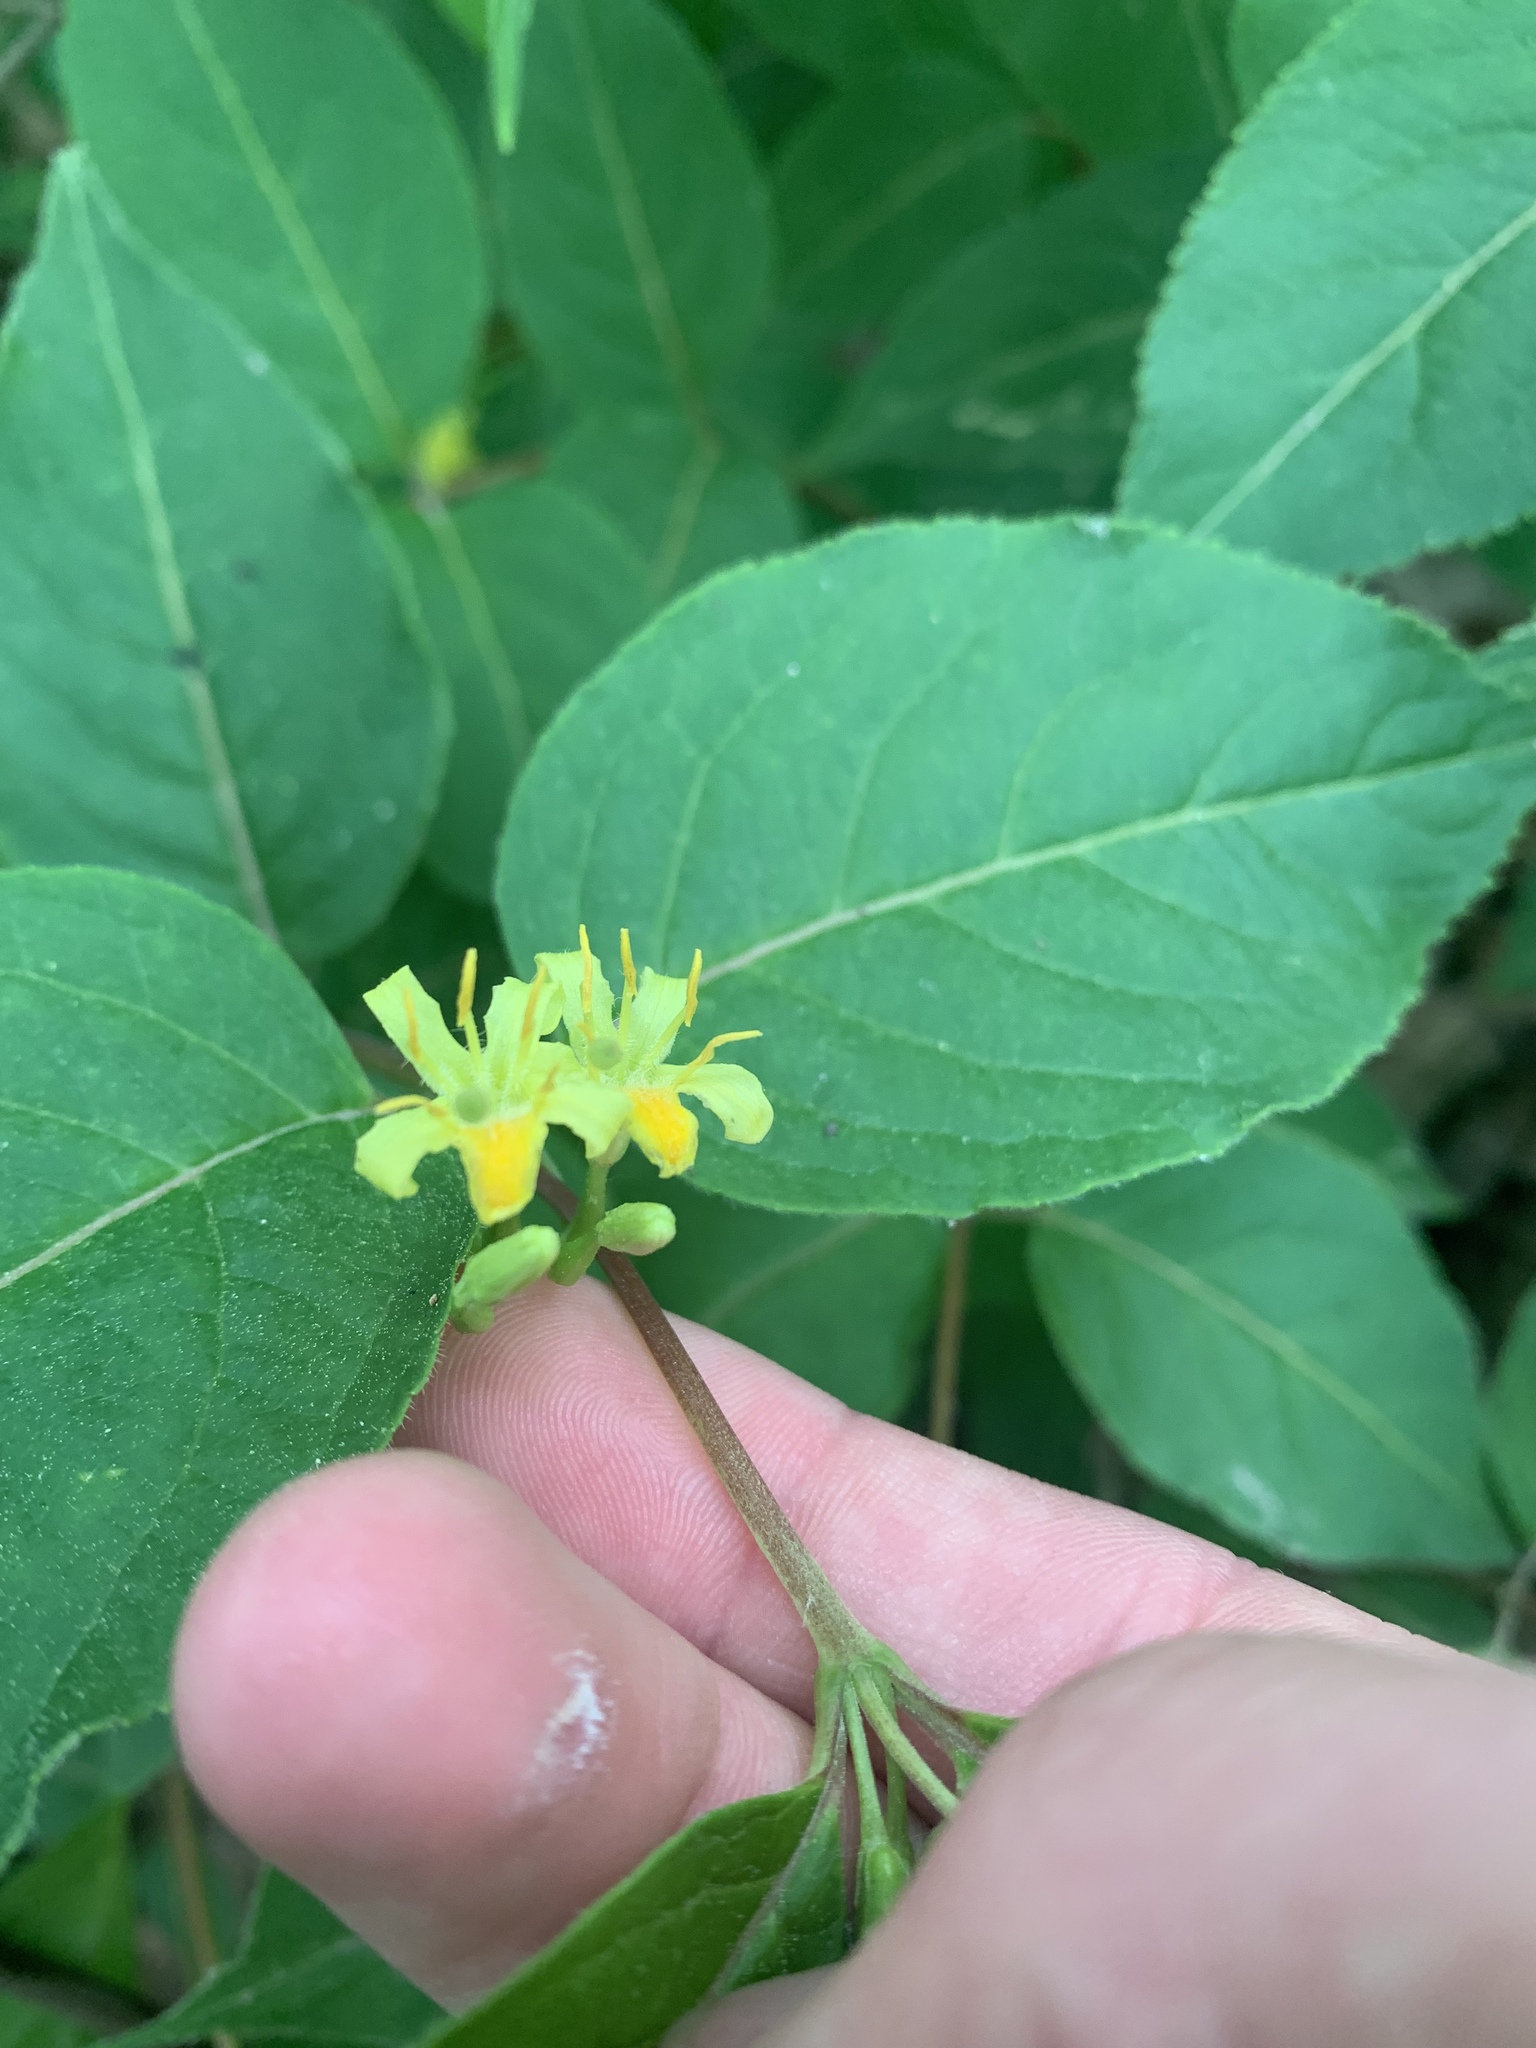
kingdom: Plantae
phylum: Tracheophyta
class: Magnoliopsida
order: Dipsacales
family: Caprifoliaceae
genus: Diervilla
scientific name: Diervilla lonicera
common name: Bush-honeysuckle
